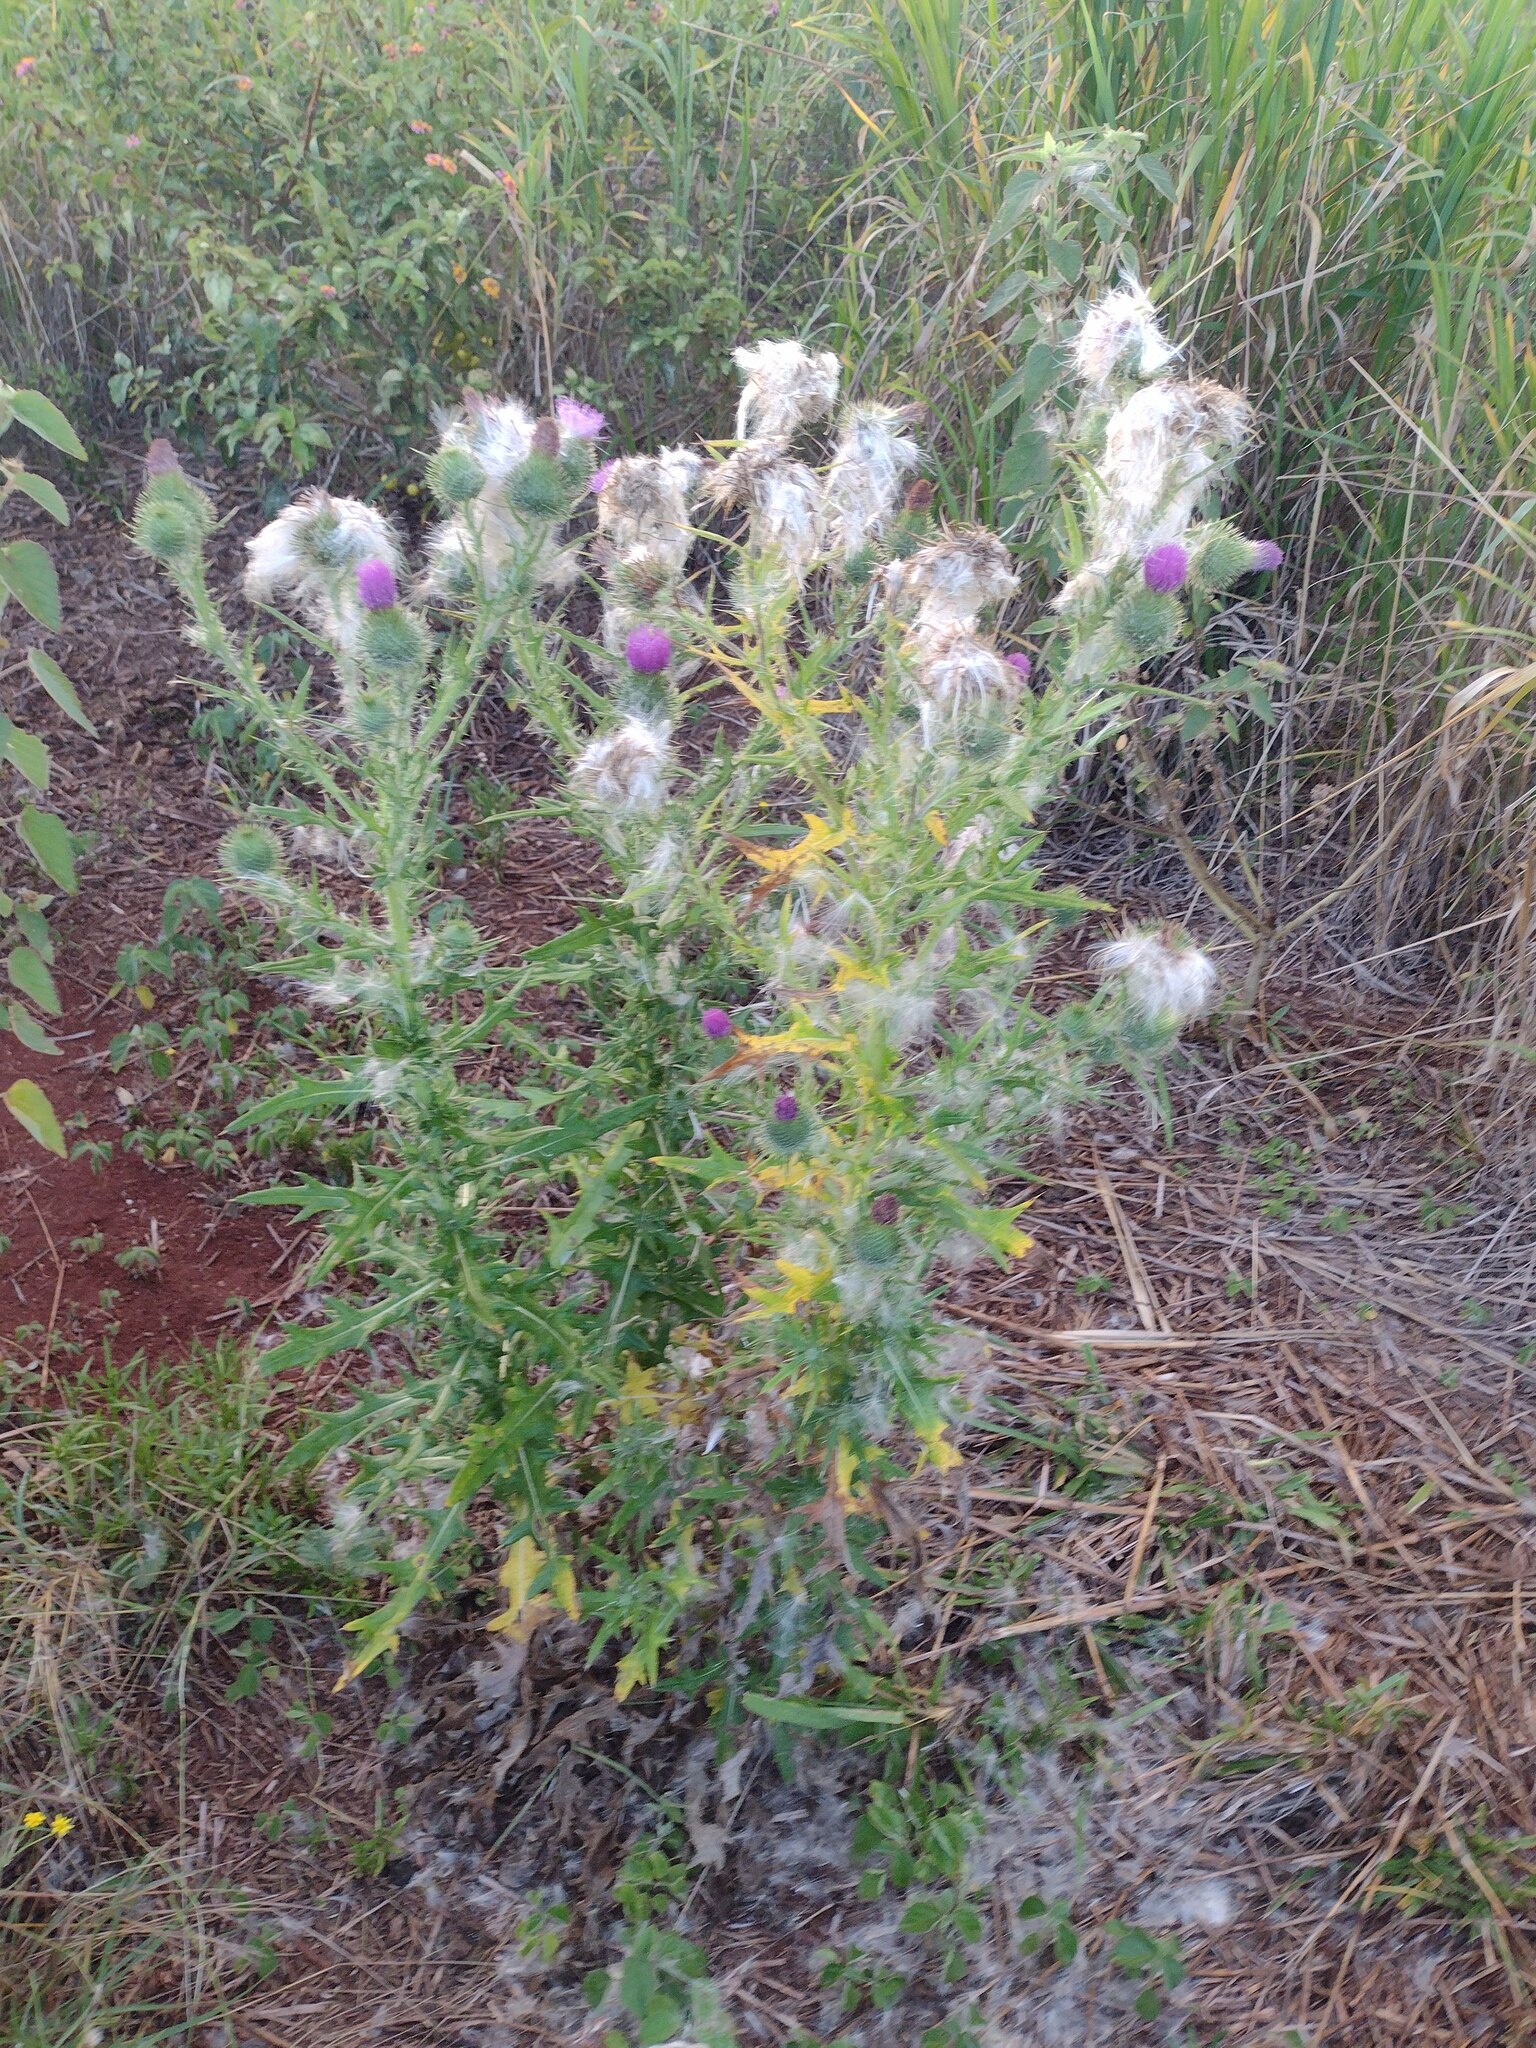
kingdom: Plantae
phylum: Tracheophyta
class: Magnoliopsida
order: Asterales
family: Asteraceae
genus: Cirsium
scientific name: Cirsium vulgare
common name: Bull thistle
